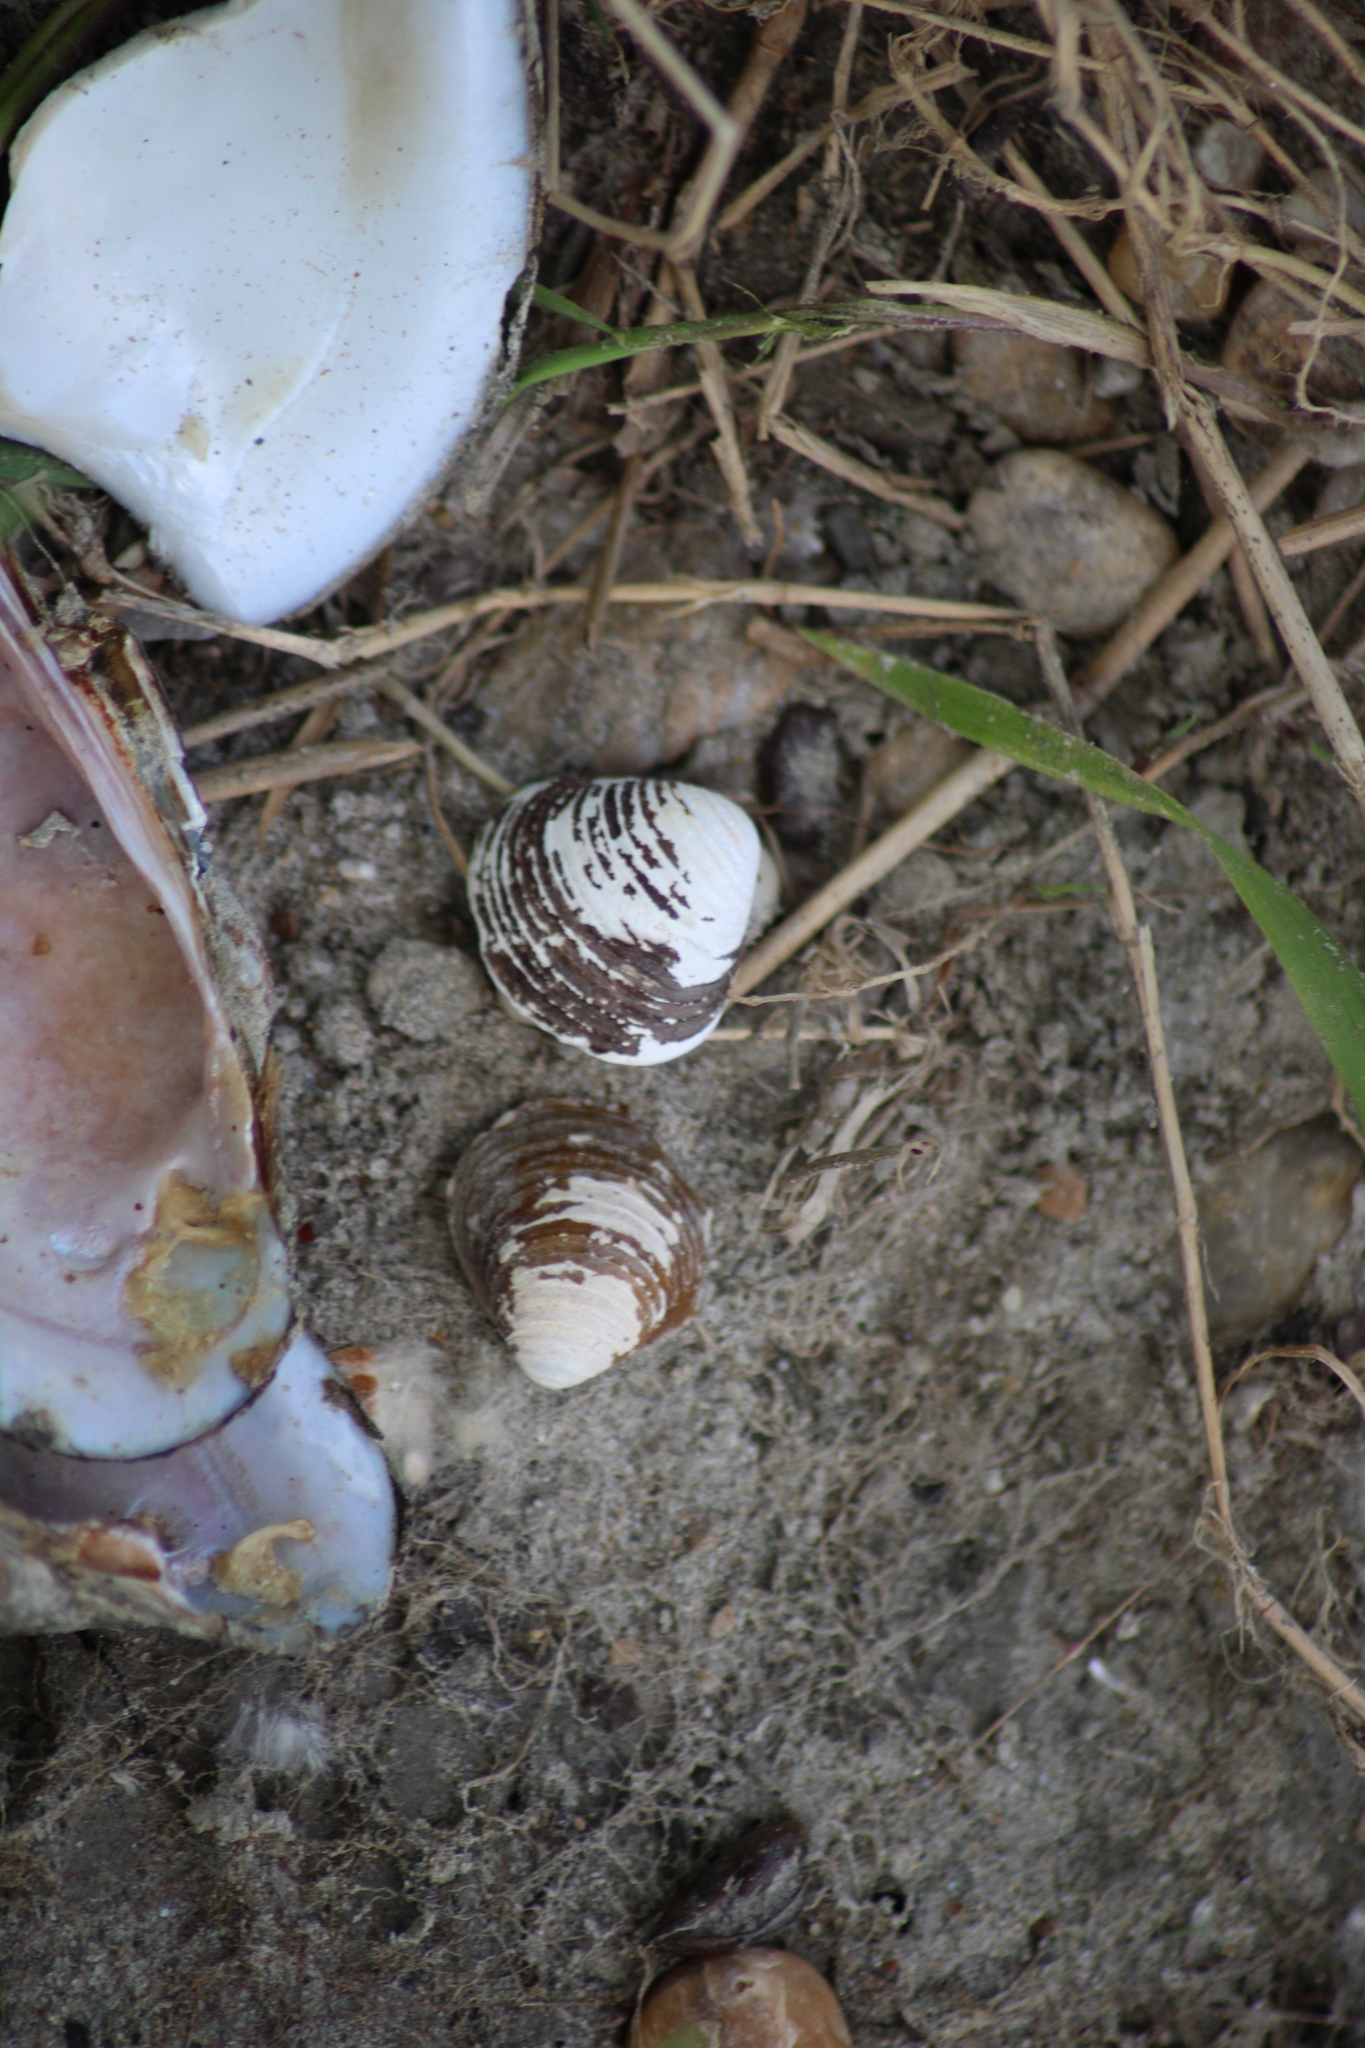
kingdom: Animalia
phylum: Mollusca
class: Bivalvia
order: Venerida
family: Cyrenidae
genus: Corbicula
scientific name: Corbicula fluminea
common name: Asian clam
